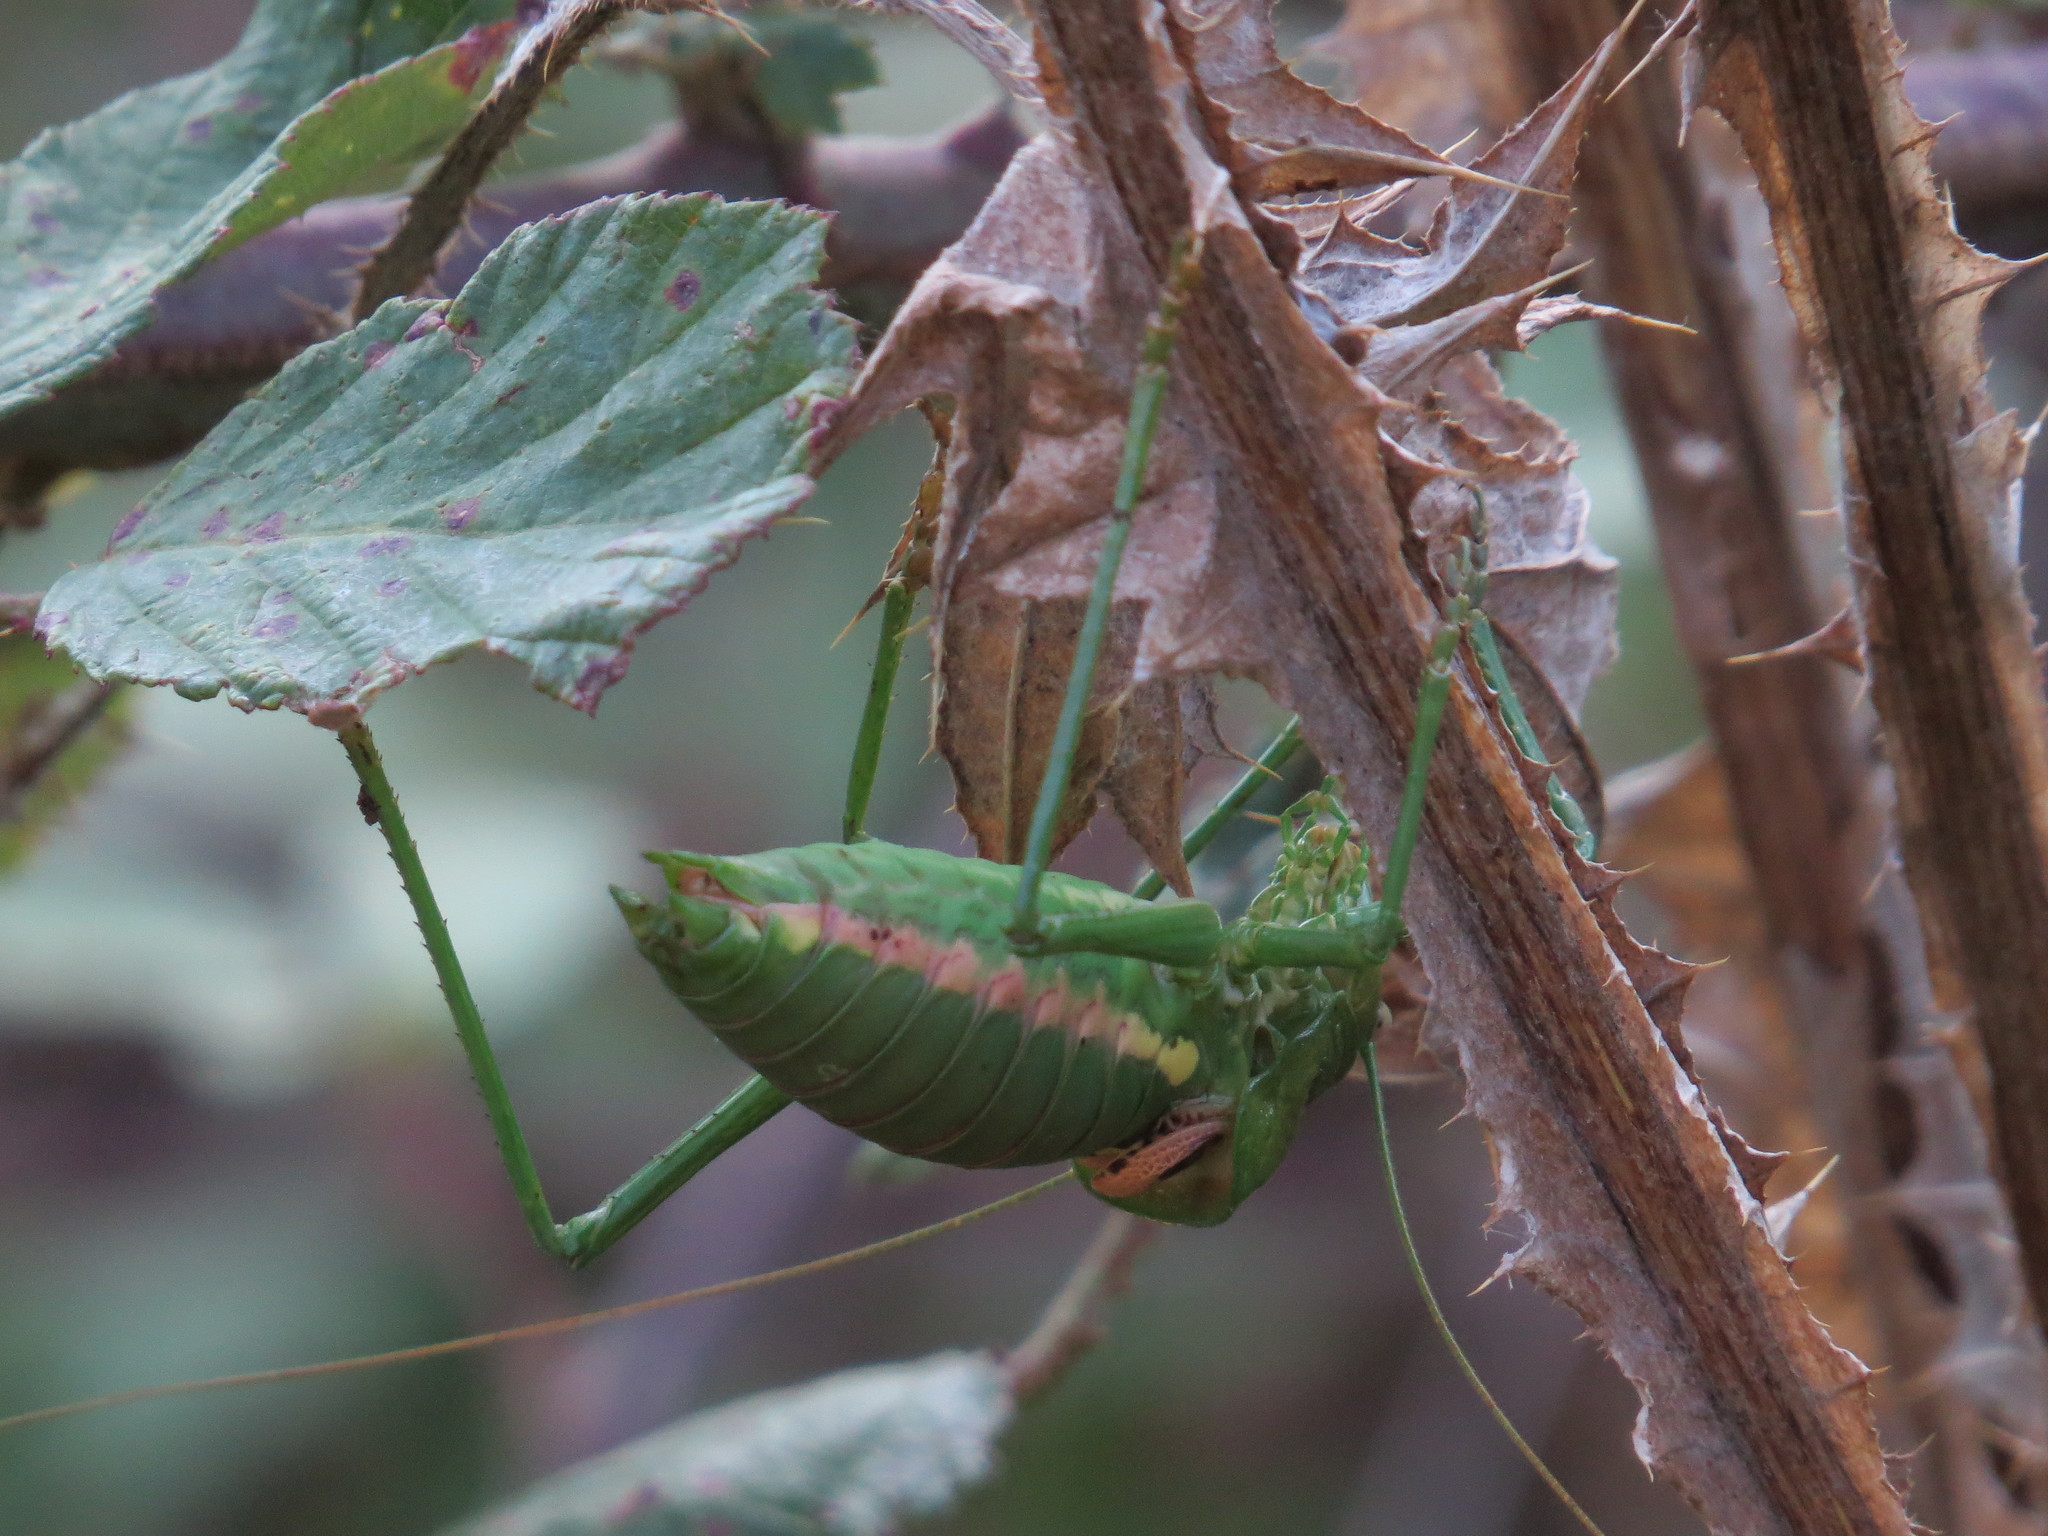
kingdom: Animalia
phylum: Arthropoda
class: Insecta
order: Orthoptera
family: Tettigoniidae
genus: Uromenus
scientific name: Uromenus brevicollis
